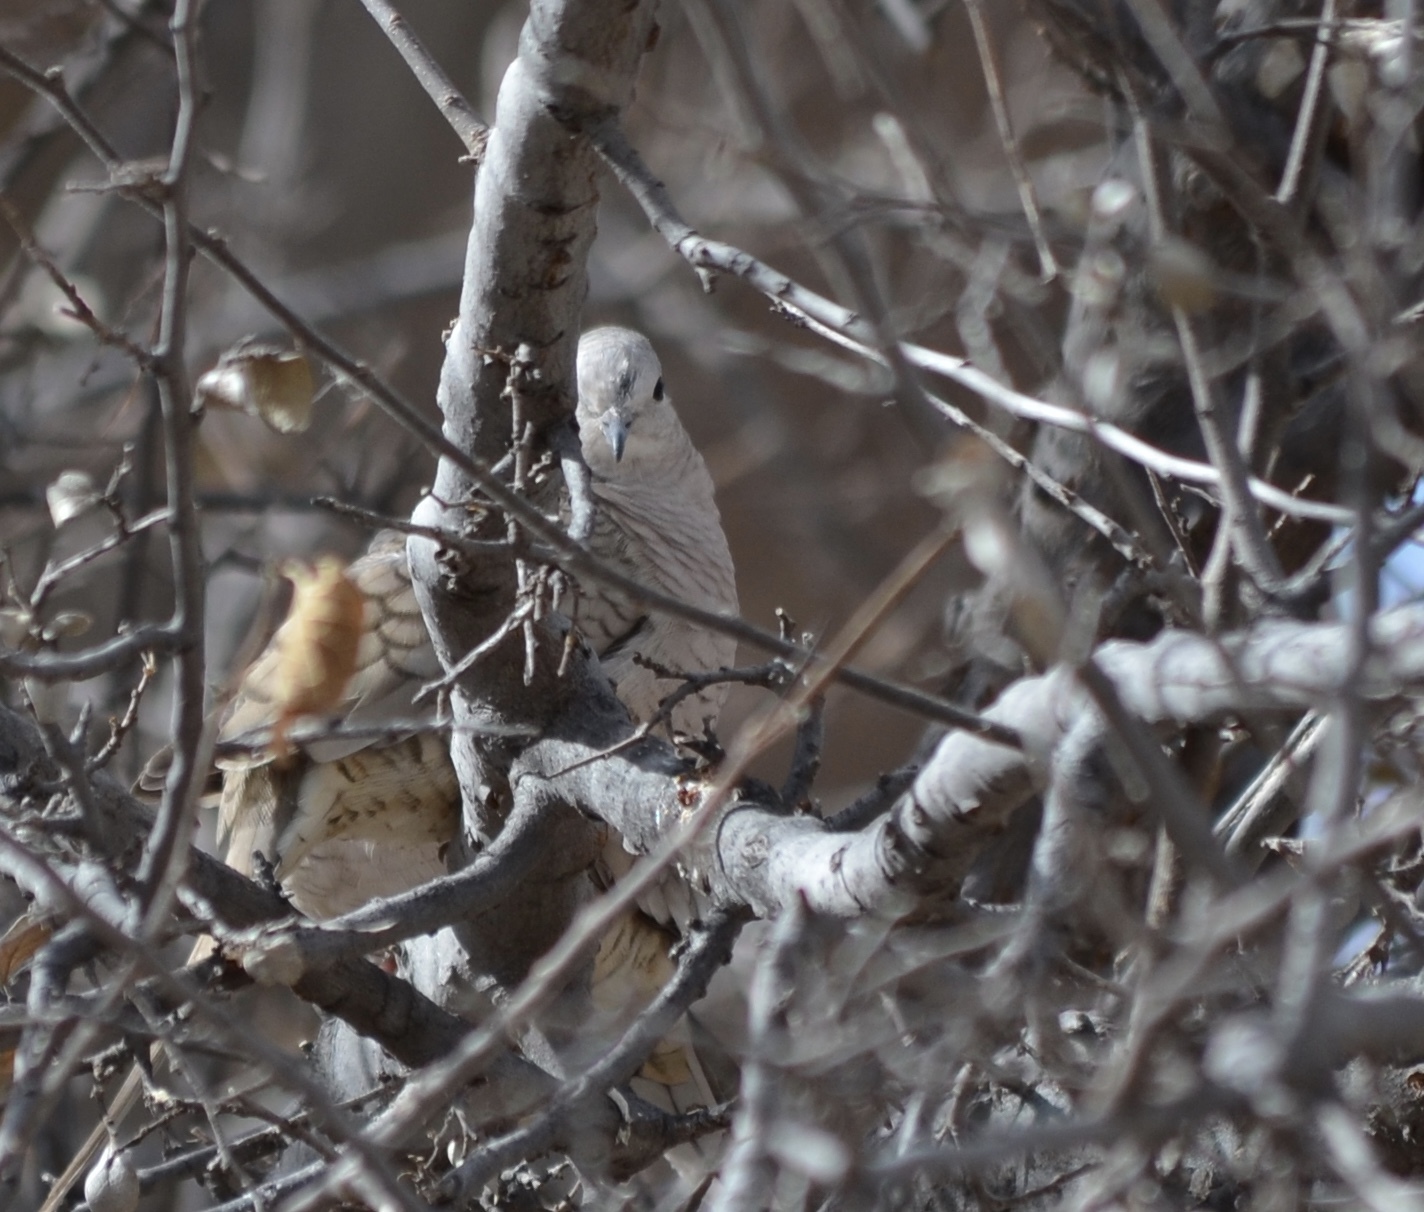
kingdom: Animalia
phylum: Chordata
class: Aves
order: Columbiformes
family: Columbidae
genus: Columbina
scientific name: Columbina inca
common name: Inca dove
